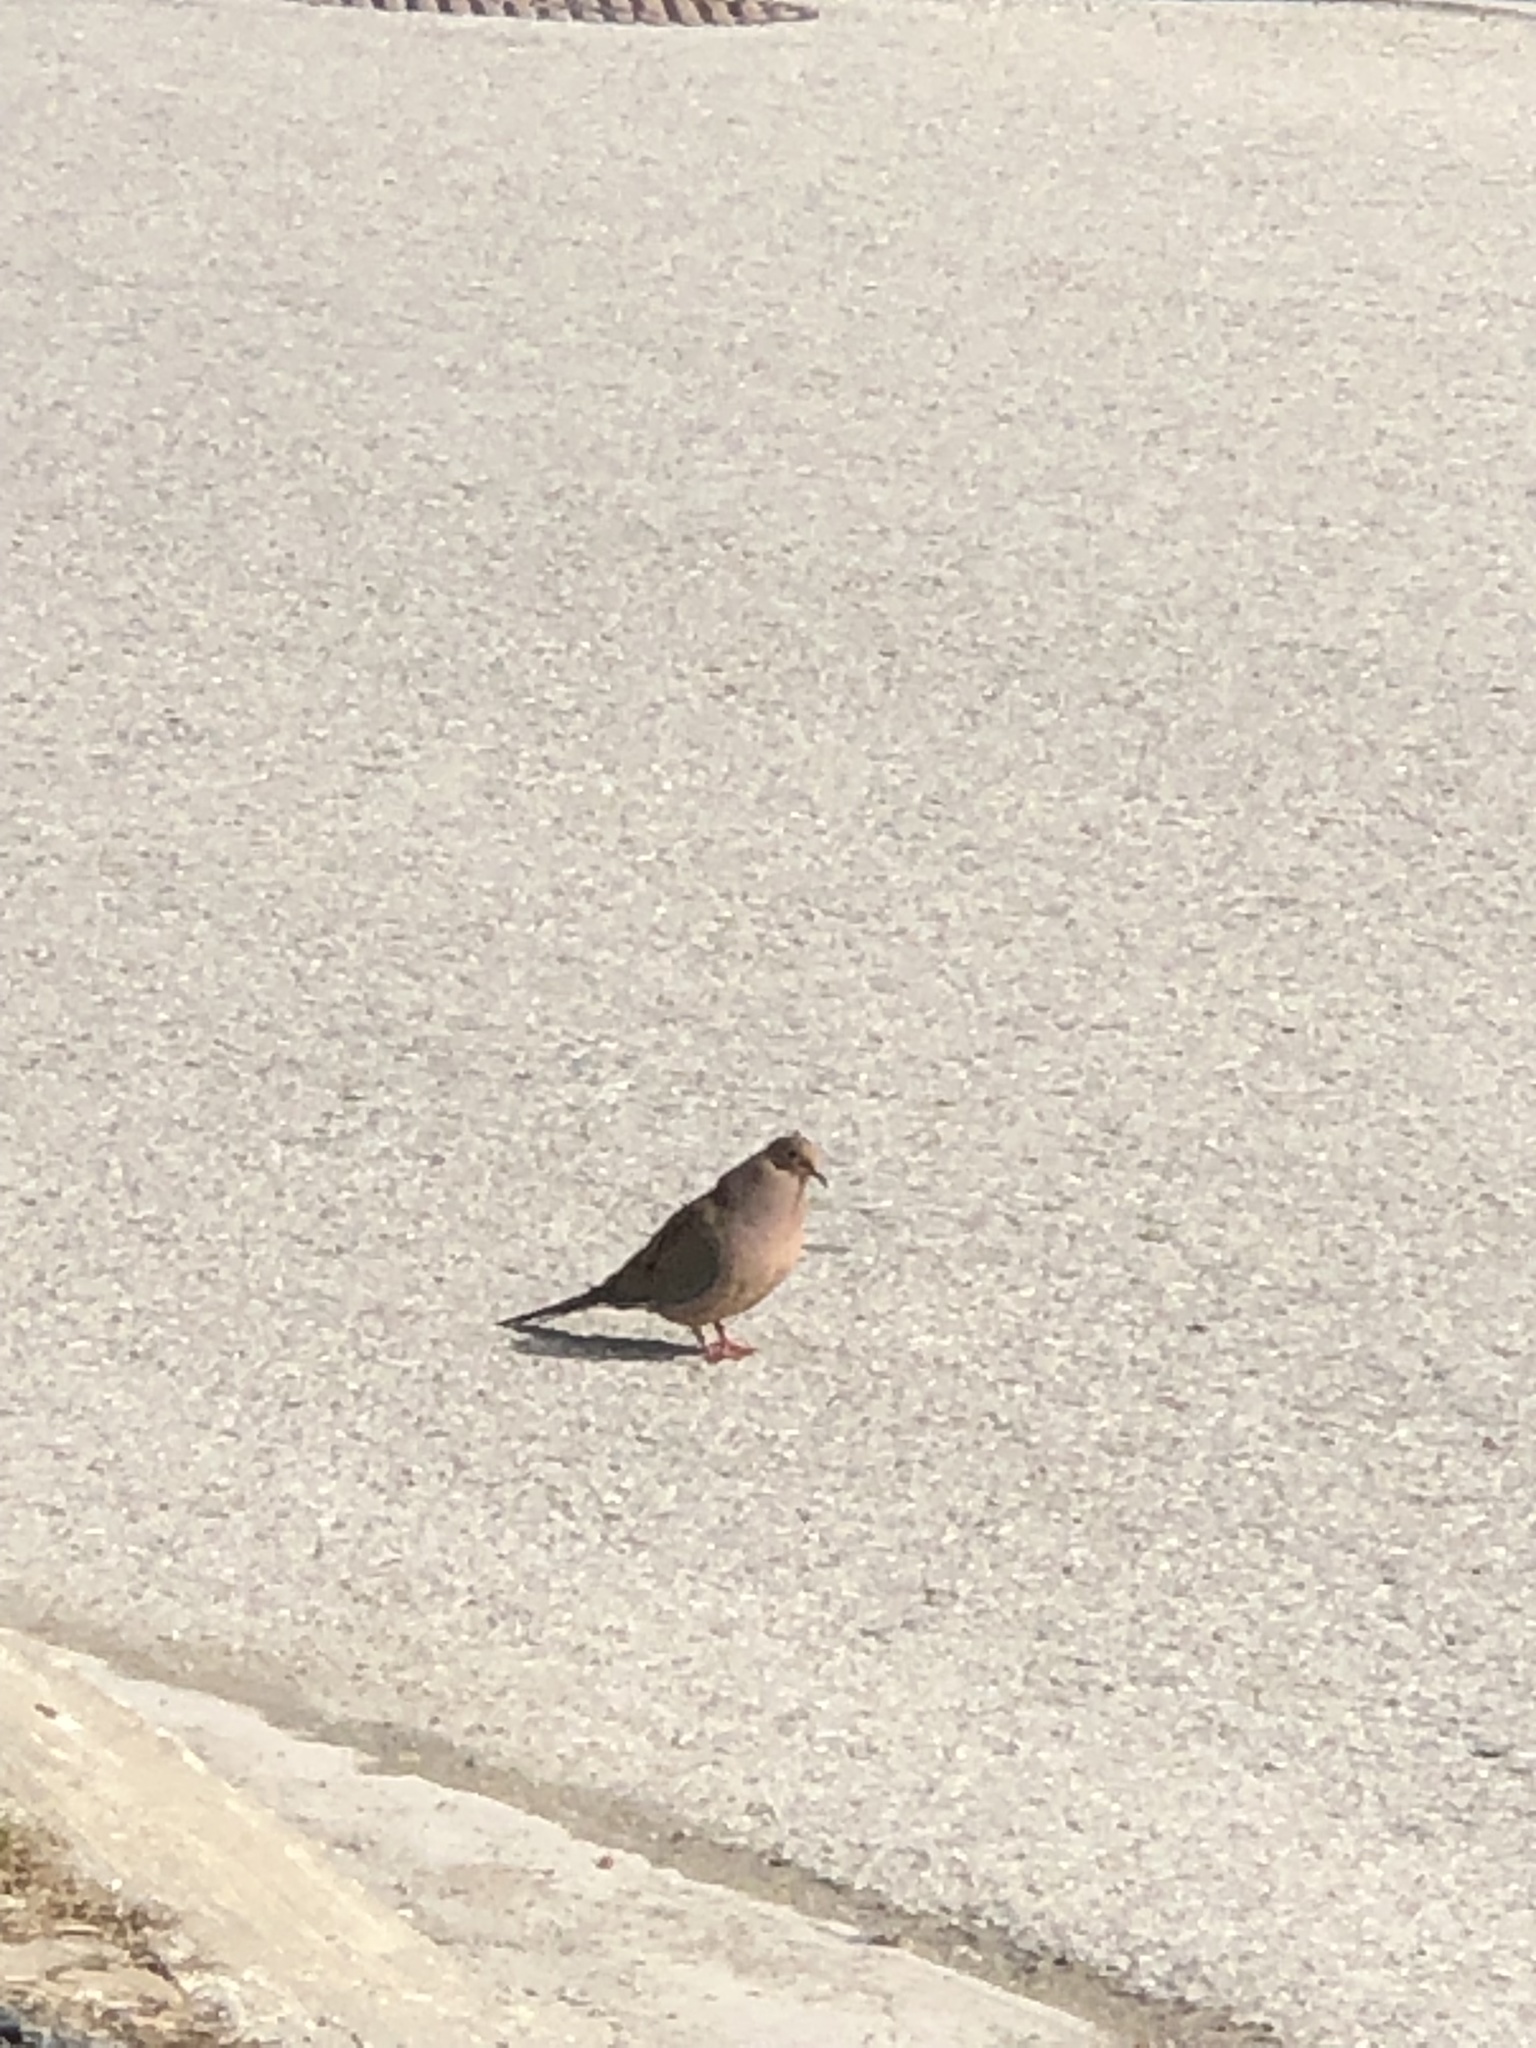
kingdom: Animalia
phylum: Chordata
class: Aves
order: Columbiformes
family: Columbidae
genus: Zenaida
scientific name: Zenaida macroura
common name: Mourning dove
